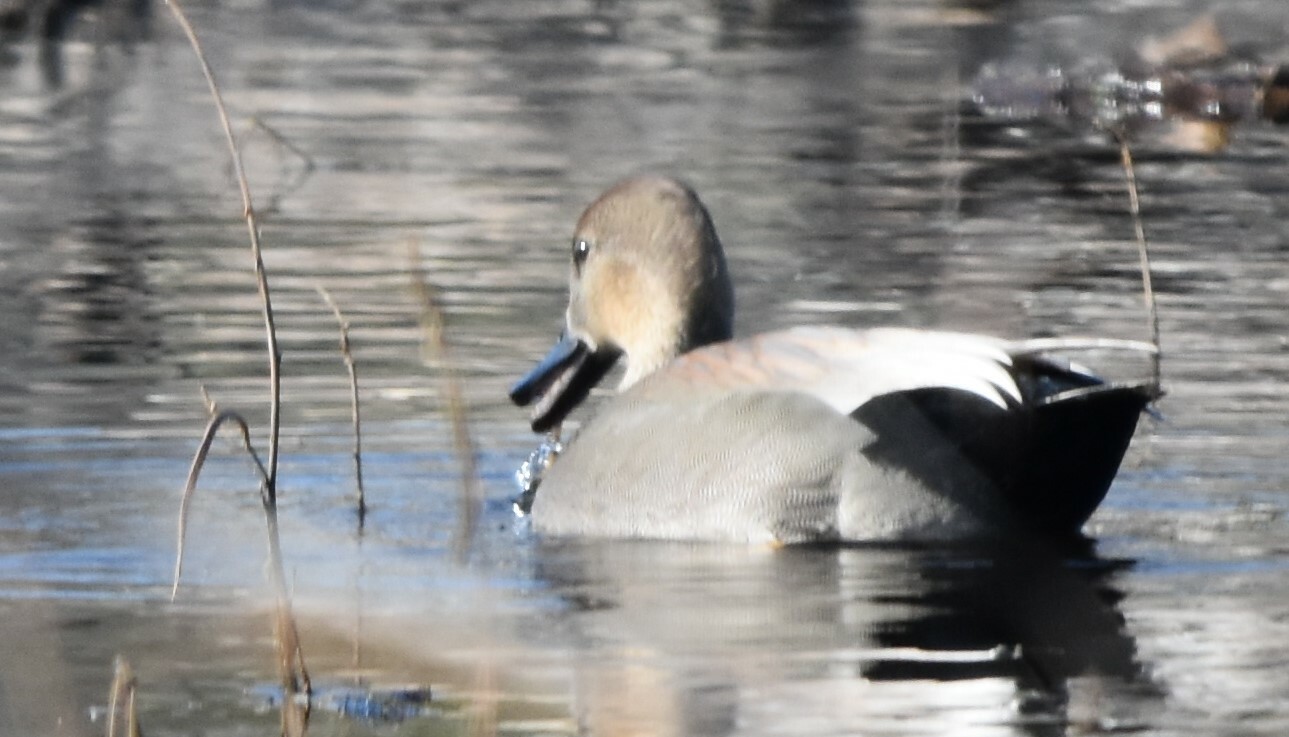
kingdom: Animalia
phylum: Chordata
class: Aves
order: Anseriformes
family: Anatidae
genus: Mareca
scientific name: Mareca strepera
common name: Gadwall
